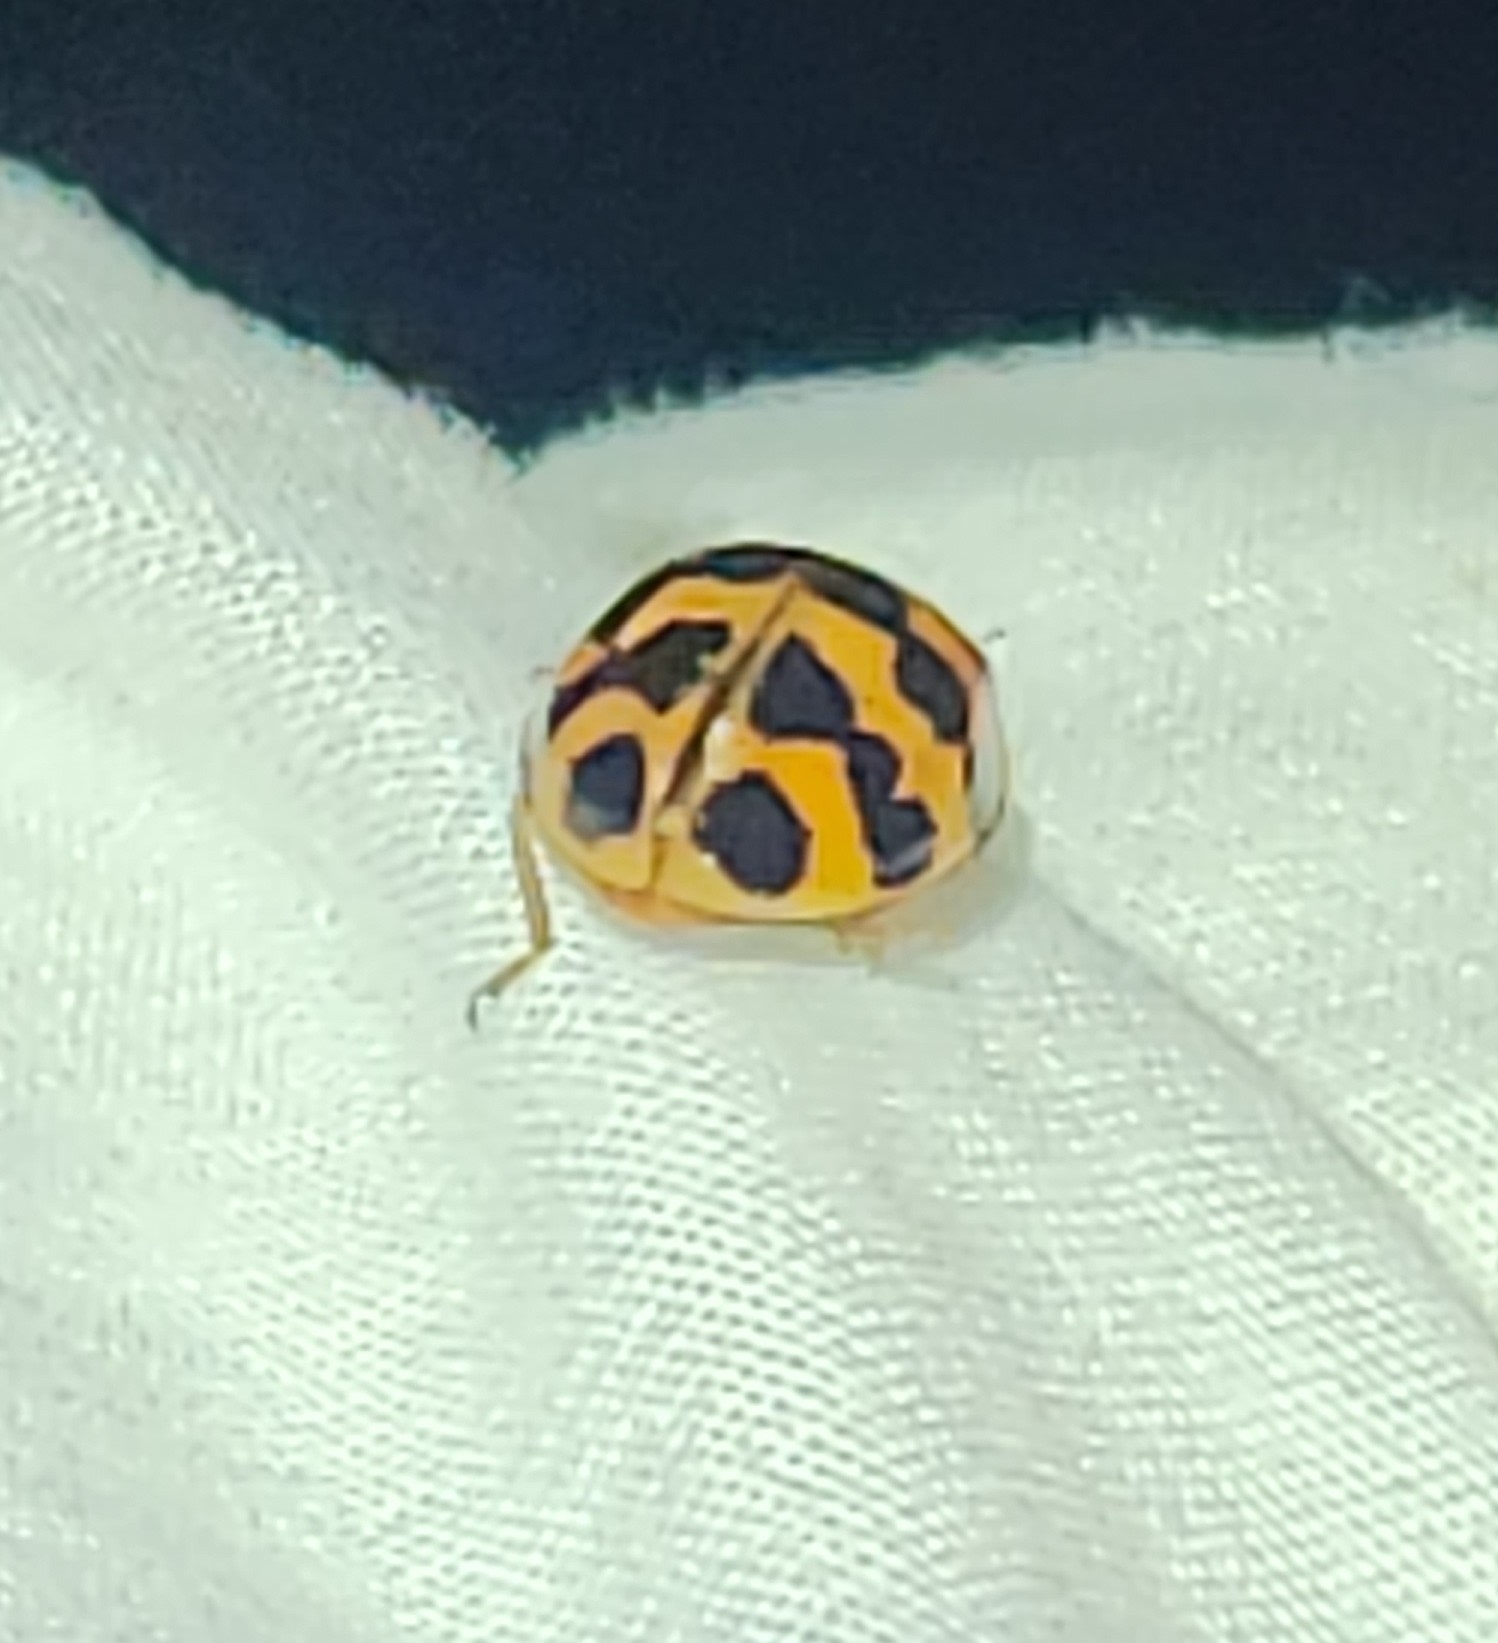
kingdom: Animalia
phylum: Arthropoda
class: Insecta
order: Coleoptera
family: Coccinellidae
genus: Harmonia
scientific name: Harmonia axyridis
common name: Harlequin ladybird
